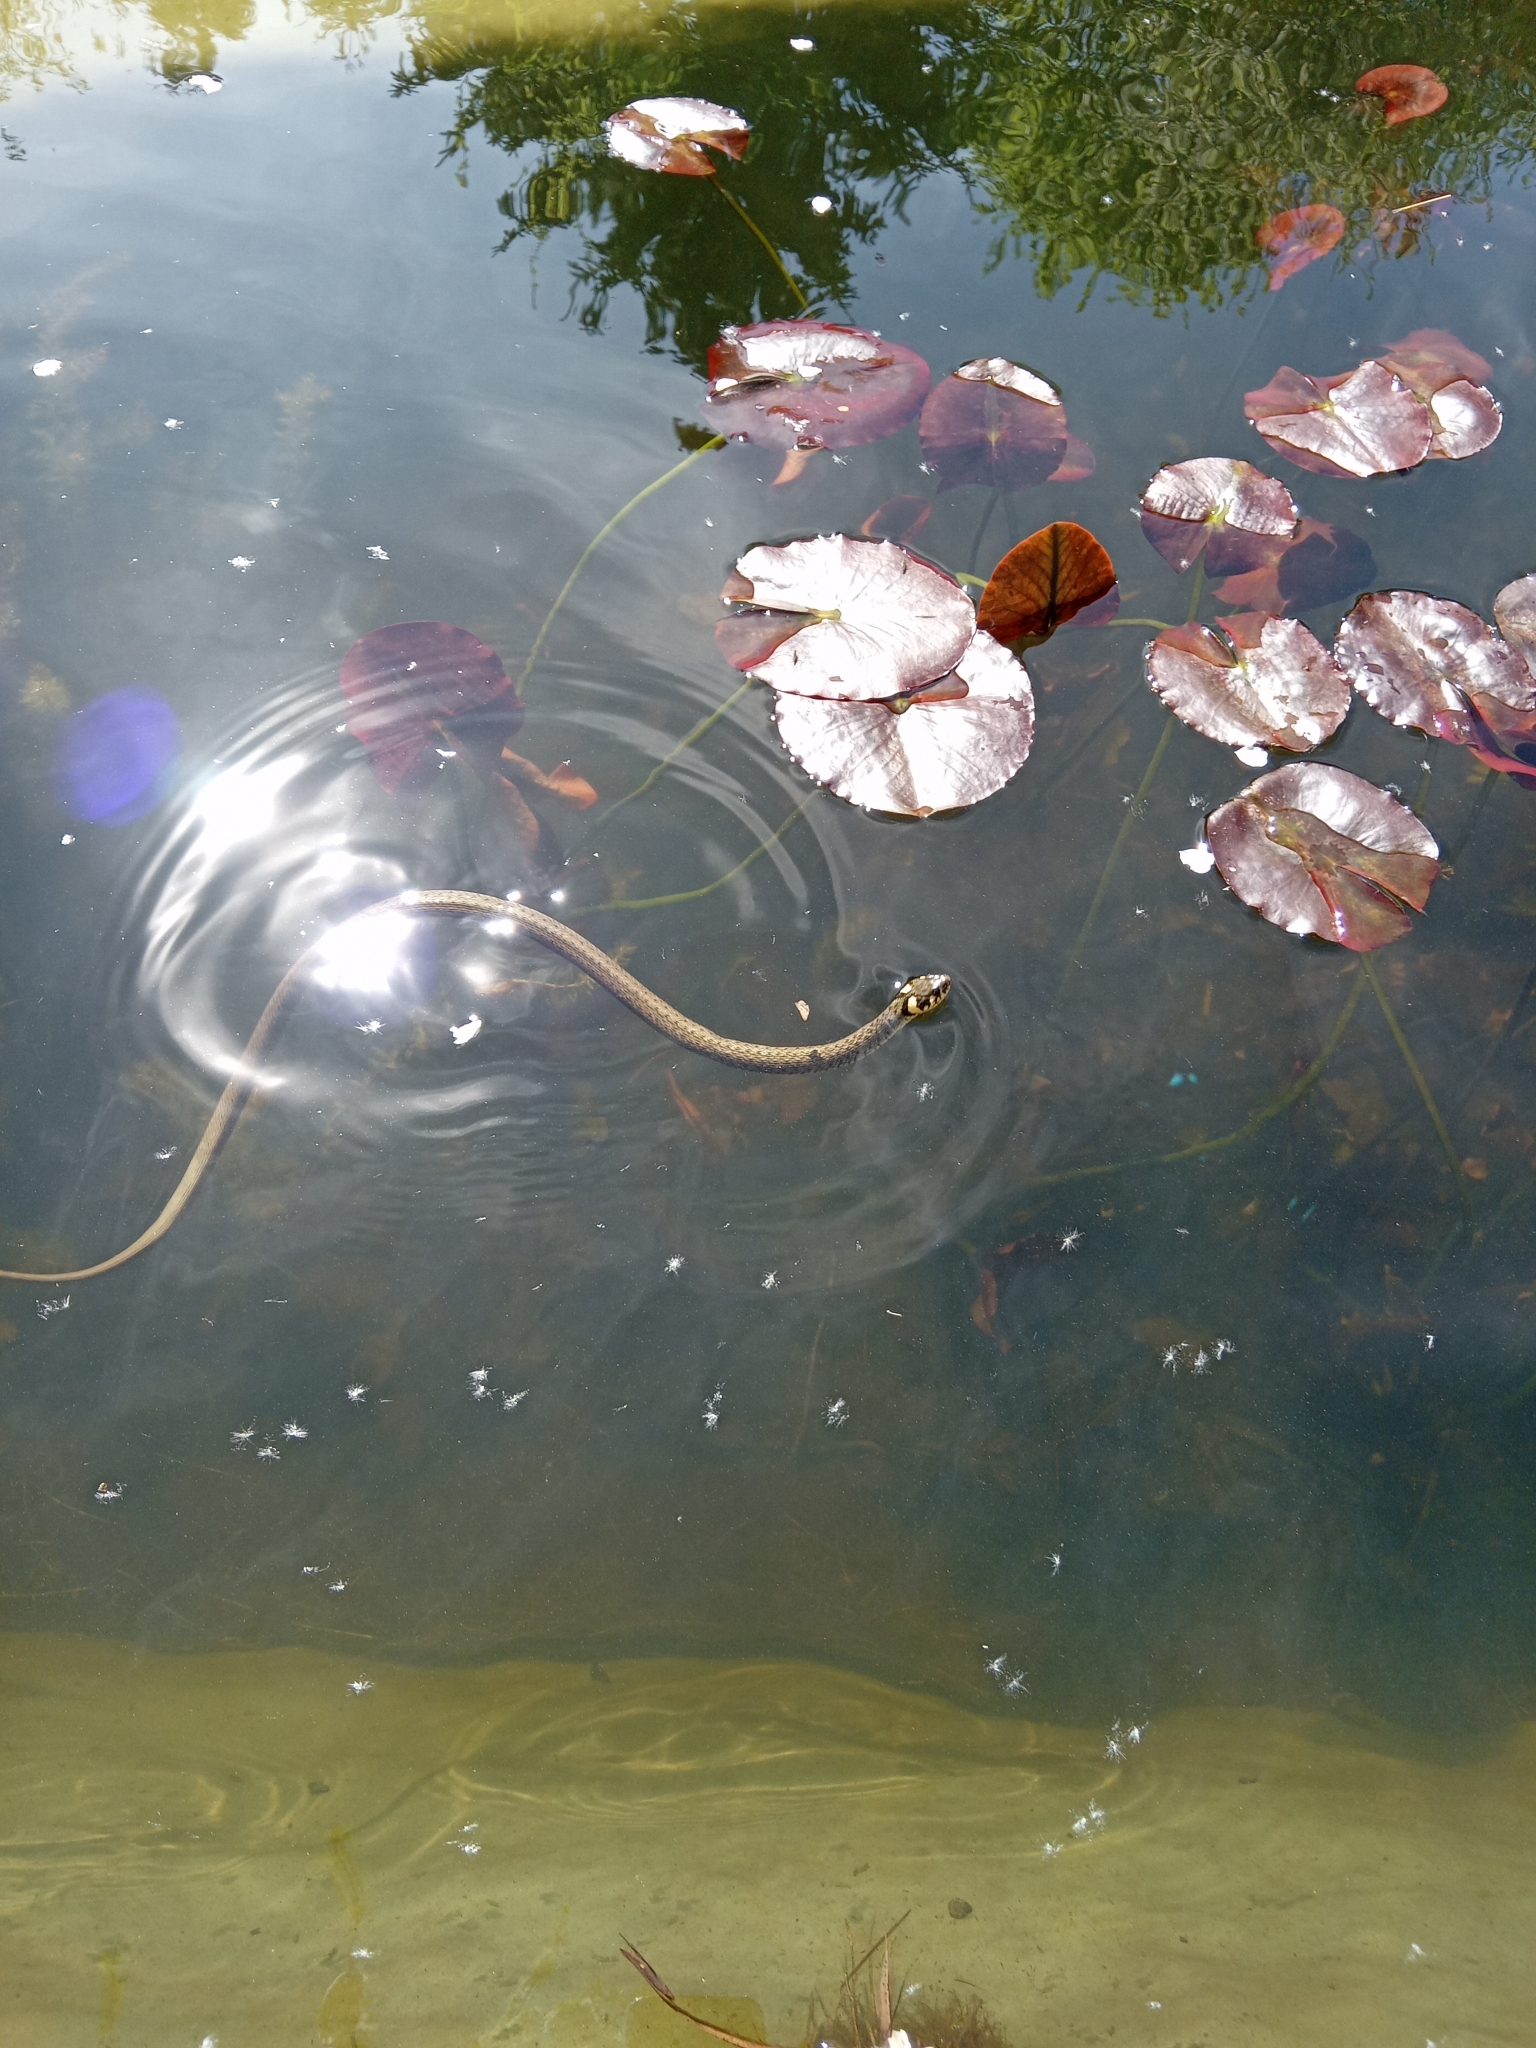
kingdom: Animalia
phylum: Chordata
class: Squamata
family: Colubridae
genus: Natrix
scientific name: Natrix natrix
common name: Grass snake
